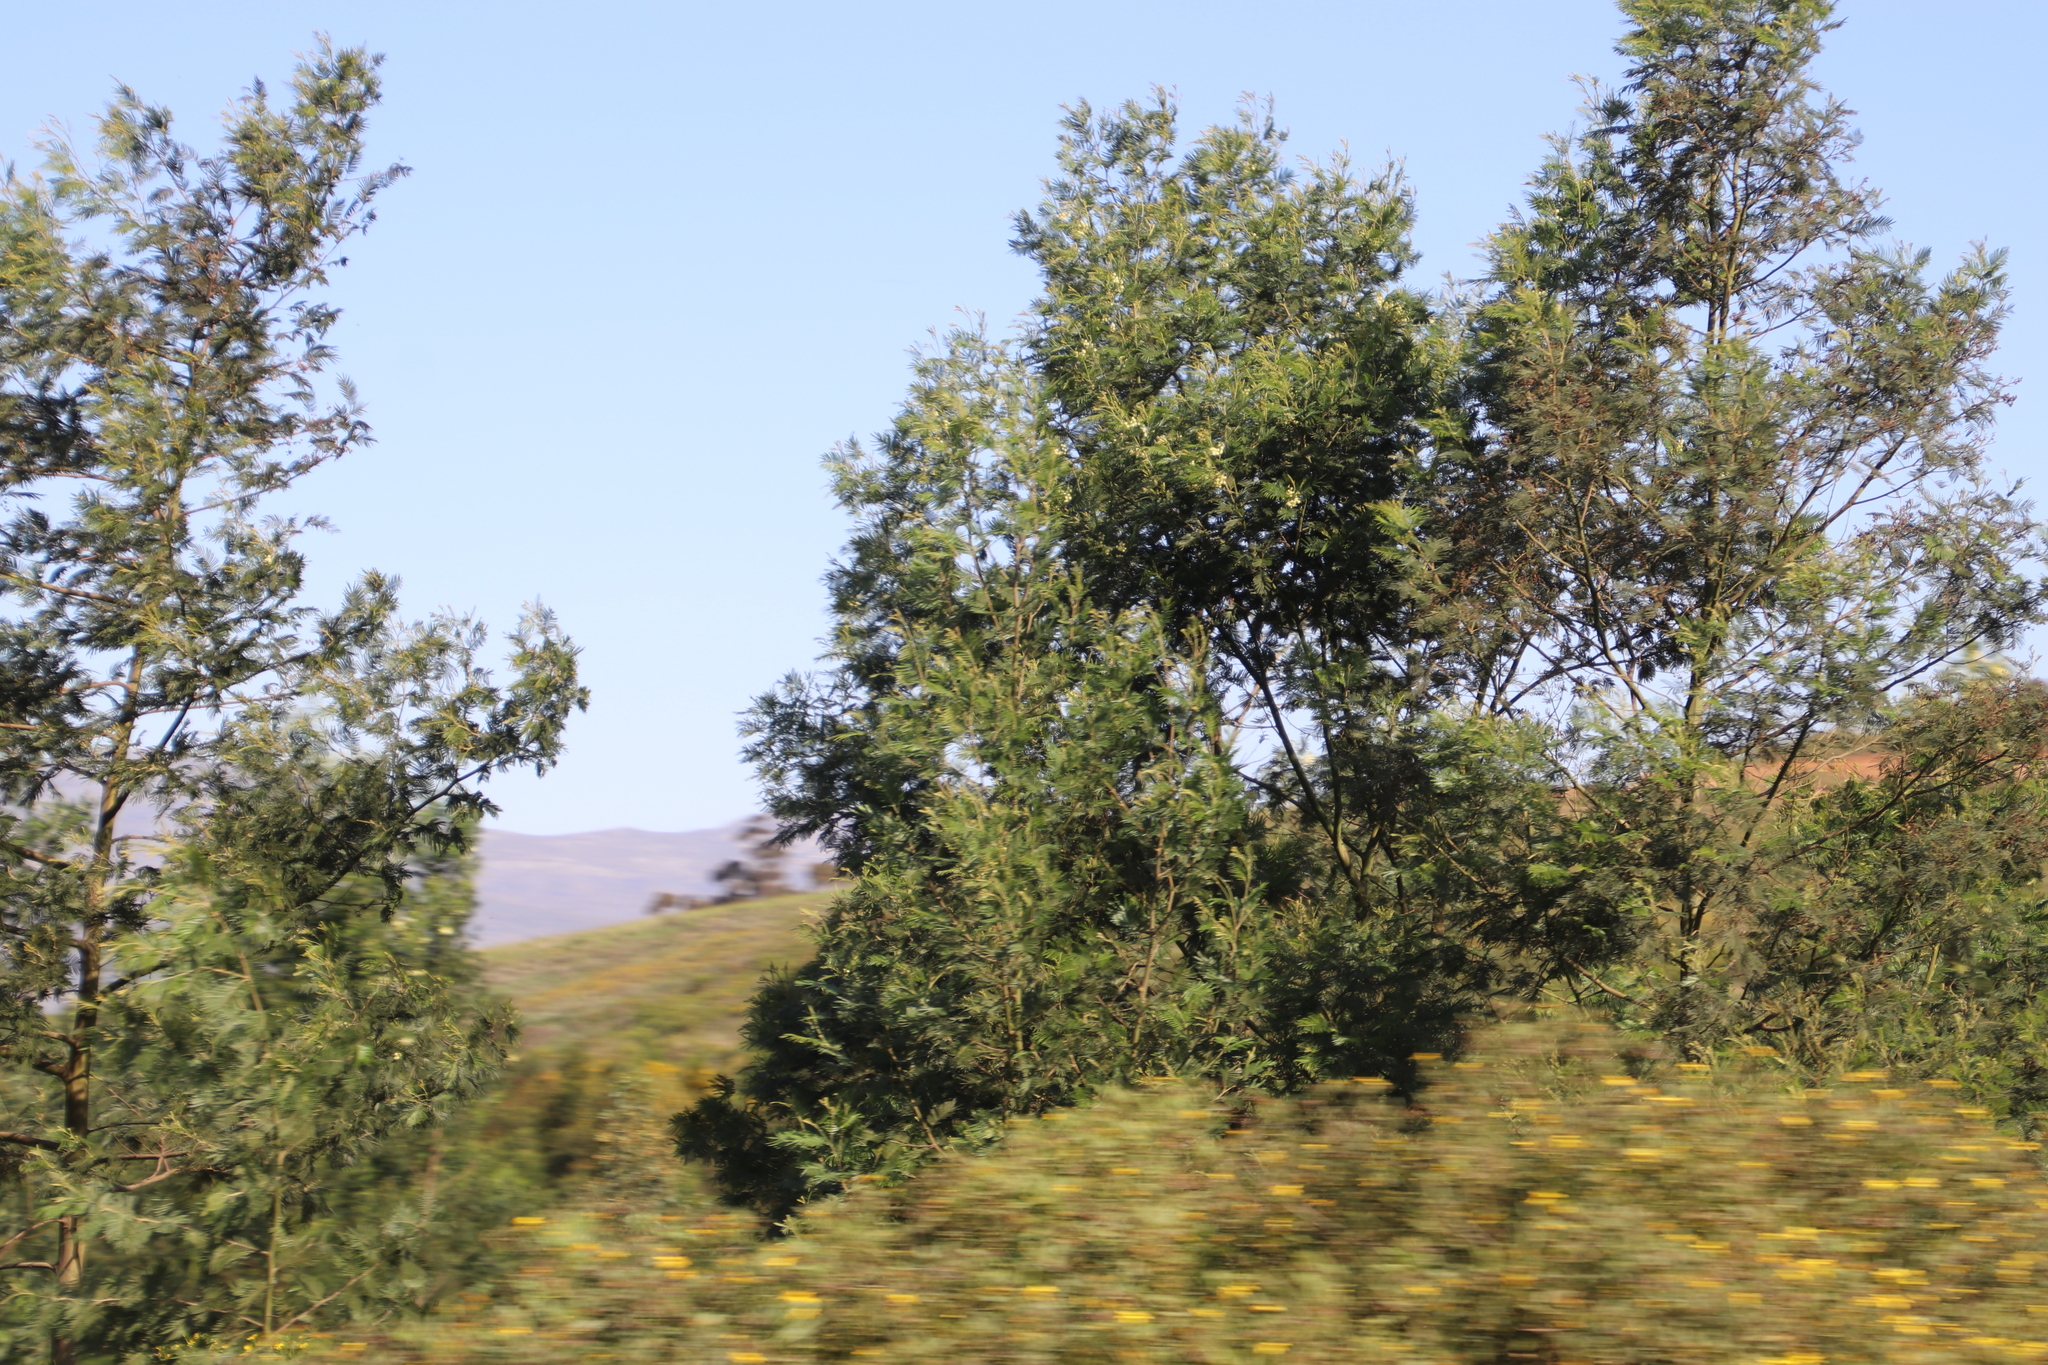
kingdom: Plantae
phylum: Tracheophyta
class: Magnoliopsida
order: Fabales
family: Fabaceae
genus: Acacia
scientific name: Acacia mearnsii
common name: Black wattle
